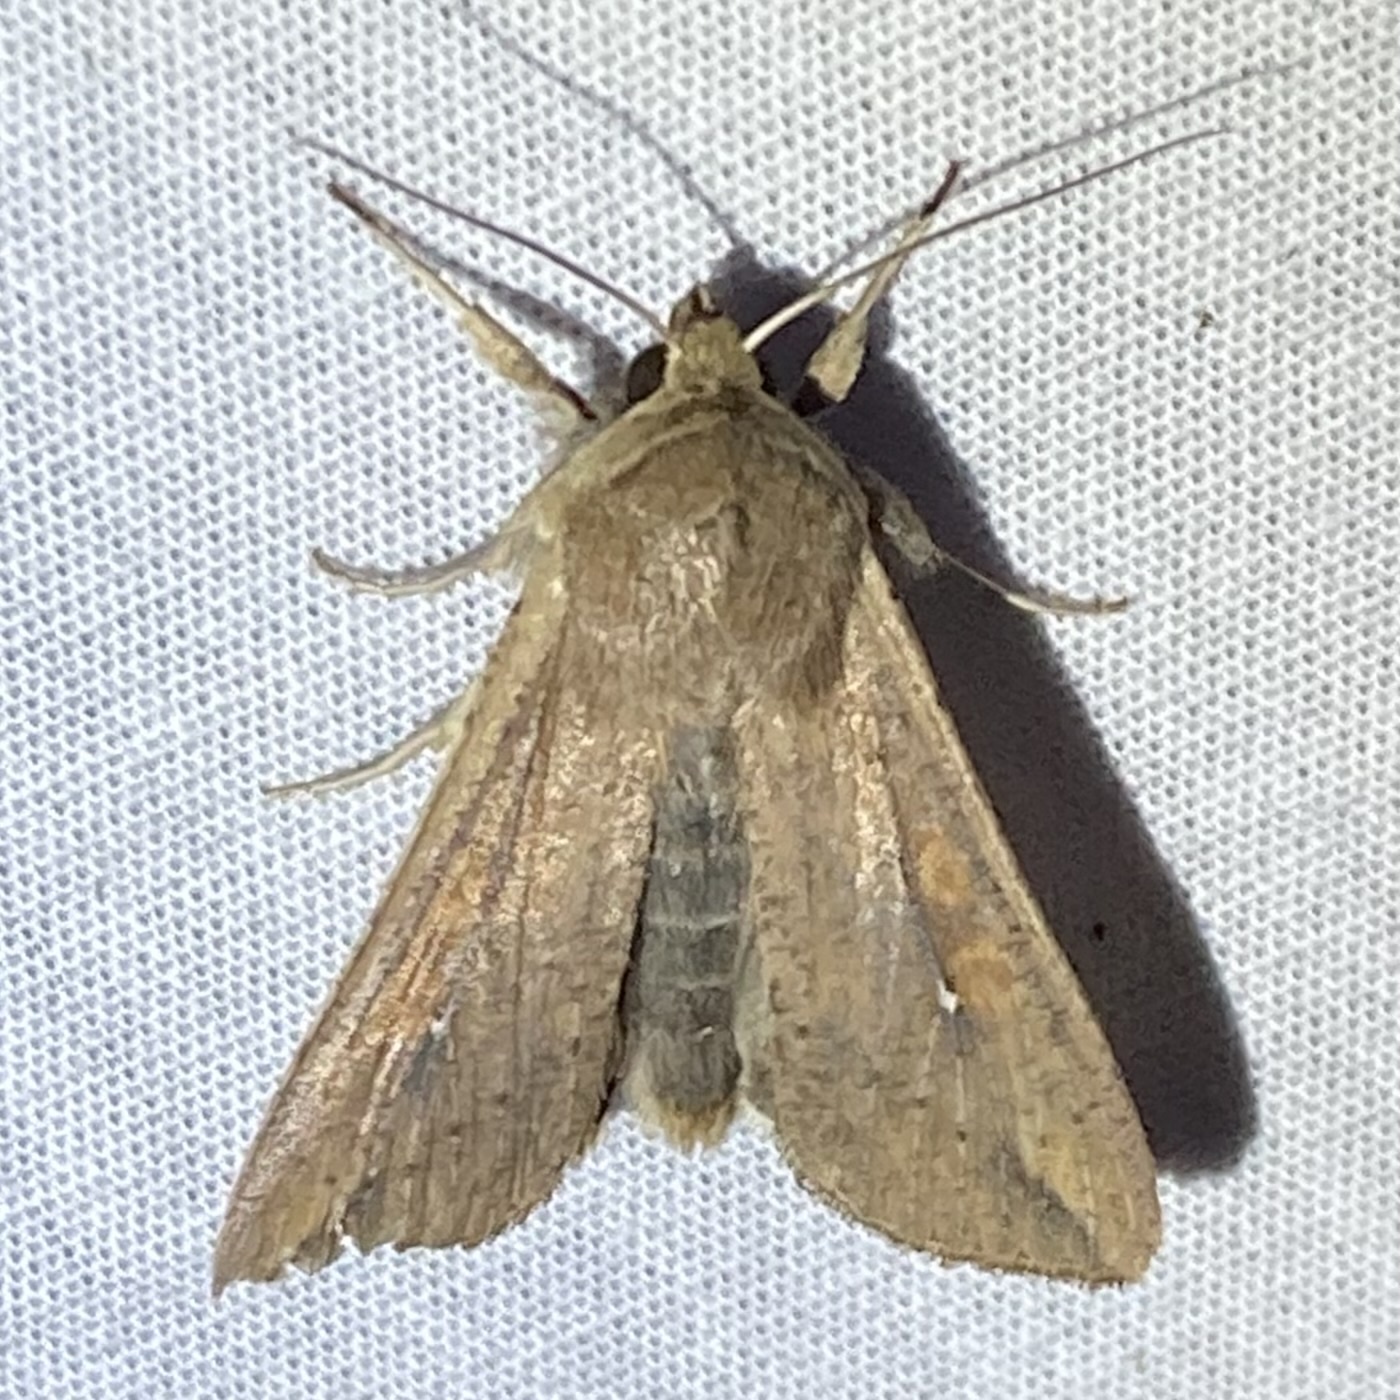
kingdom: Animalia
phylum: Arthropoda
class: Insecta
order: Lepidoptera
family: Noctuidae
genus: Mythimna
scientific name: Mythimna unipuncta
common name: White-speck
